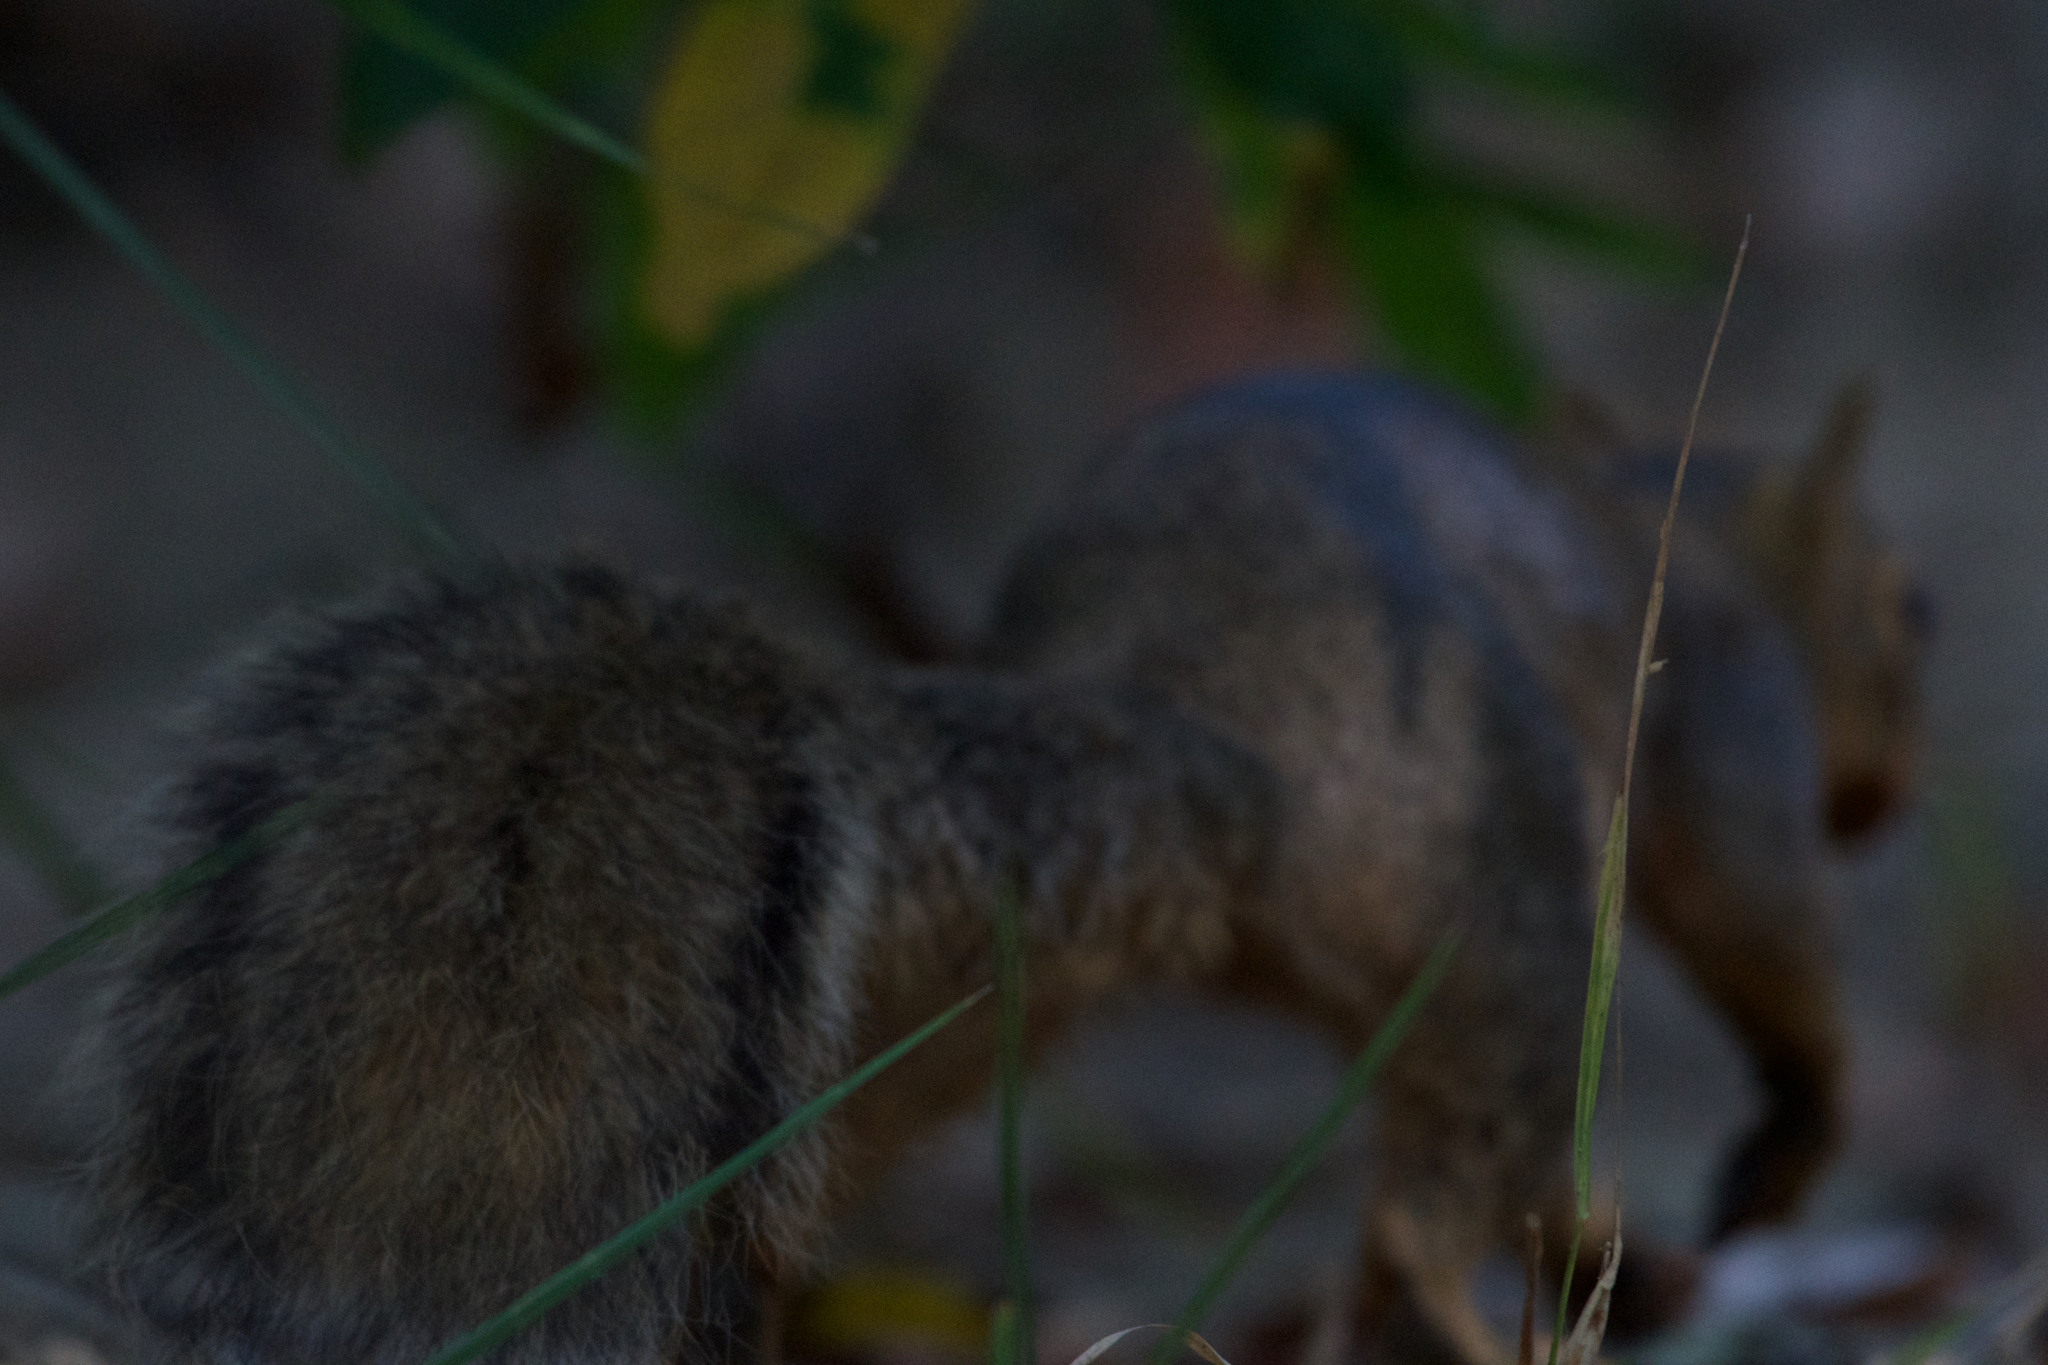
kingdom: Animalia
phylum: Chordata
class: Mammalia
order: Rodentia
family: Sciuridae
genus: Sciurus
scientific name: Sciurus niger
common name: Fox squirrel
